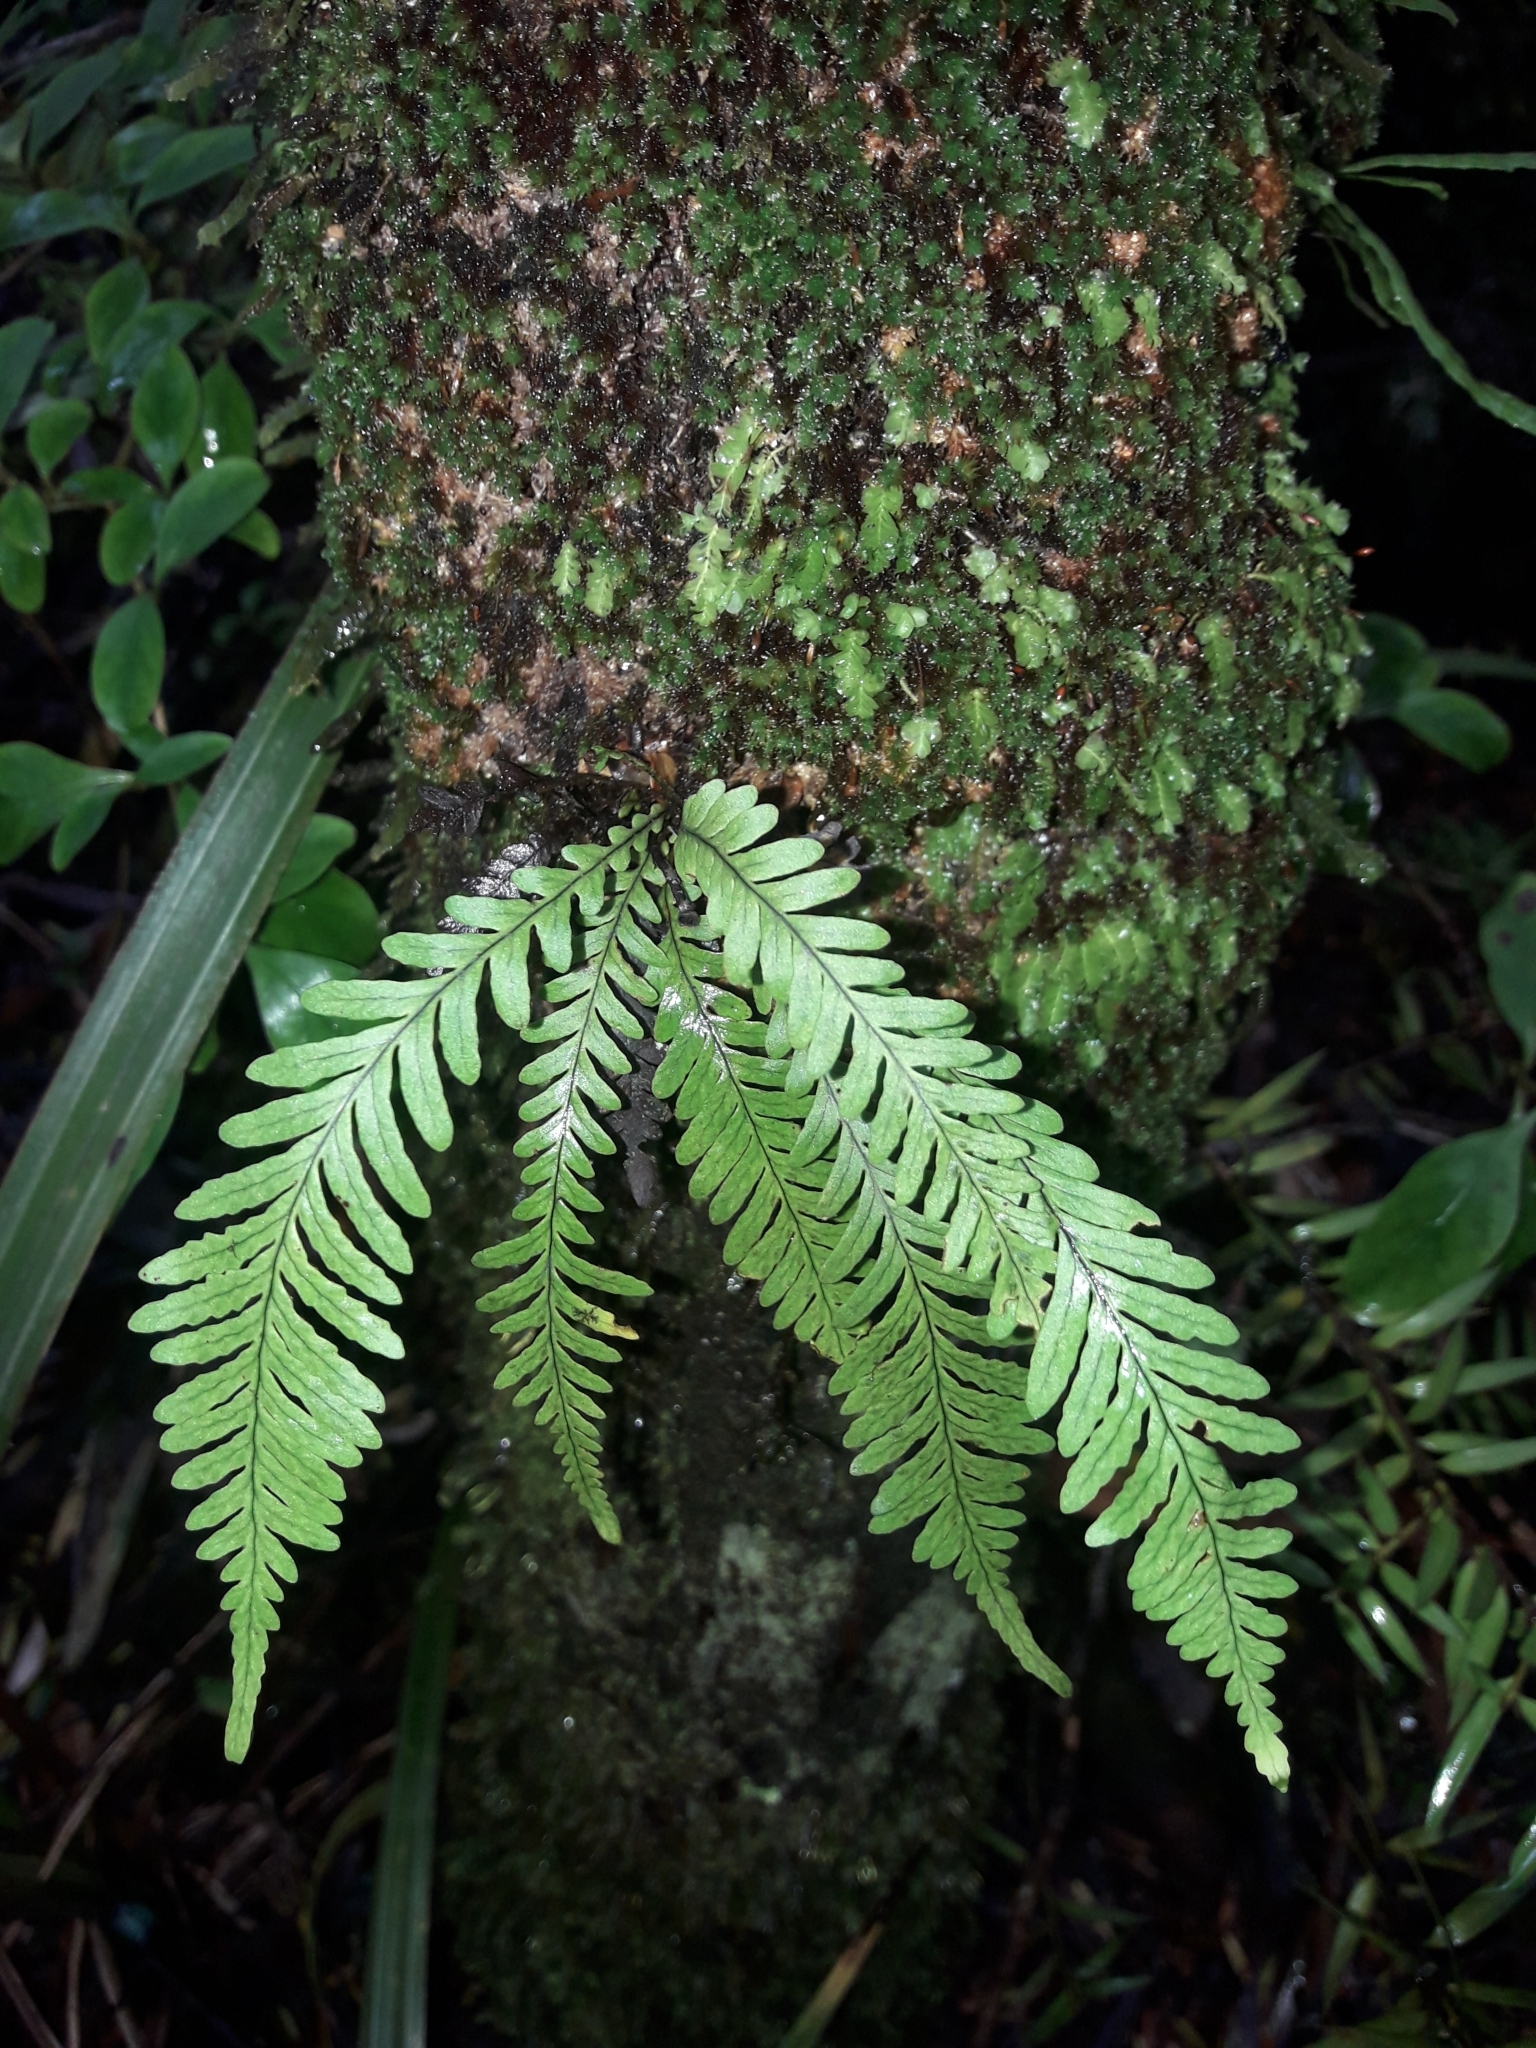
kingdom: Plantae
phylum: Tracheophyta
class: Polypodiopsida
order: Polypodiales
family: Polypodiaceae
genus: Notogrammitis
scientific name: Notogrammitis heterophylla
